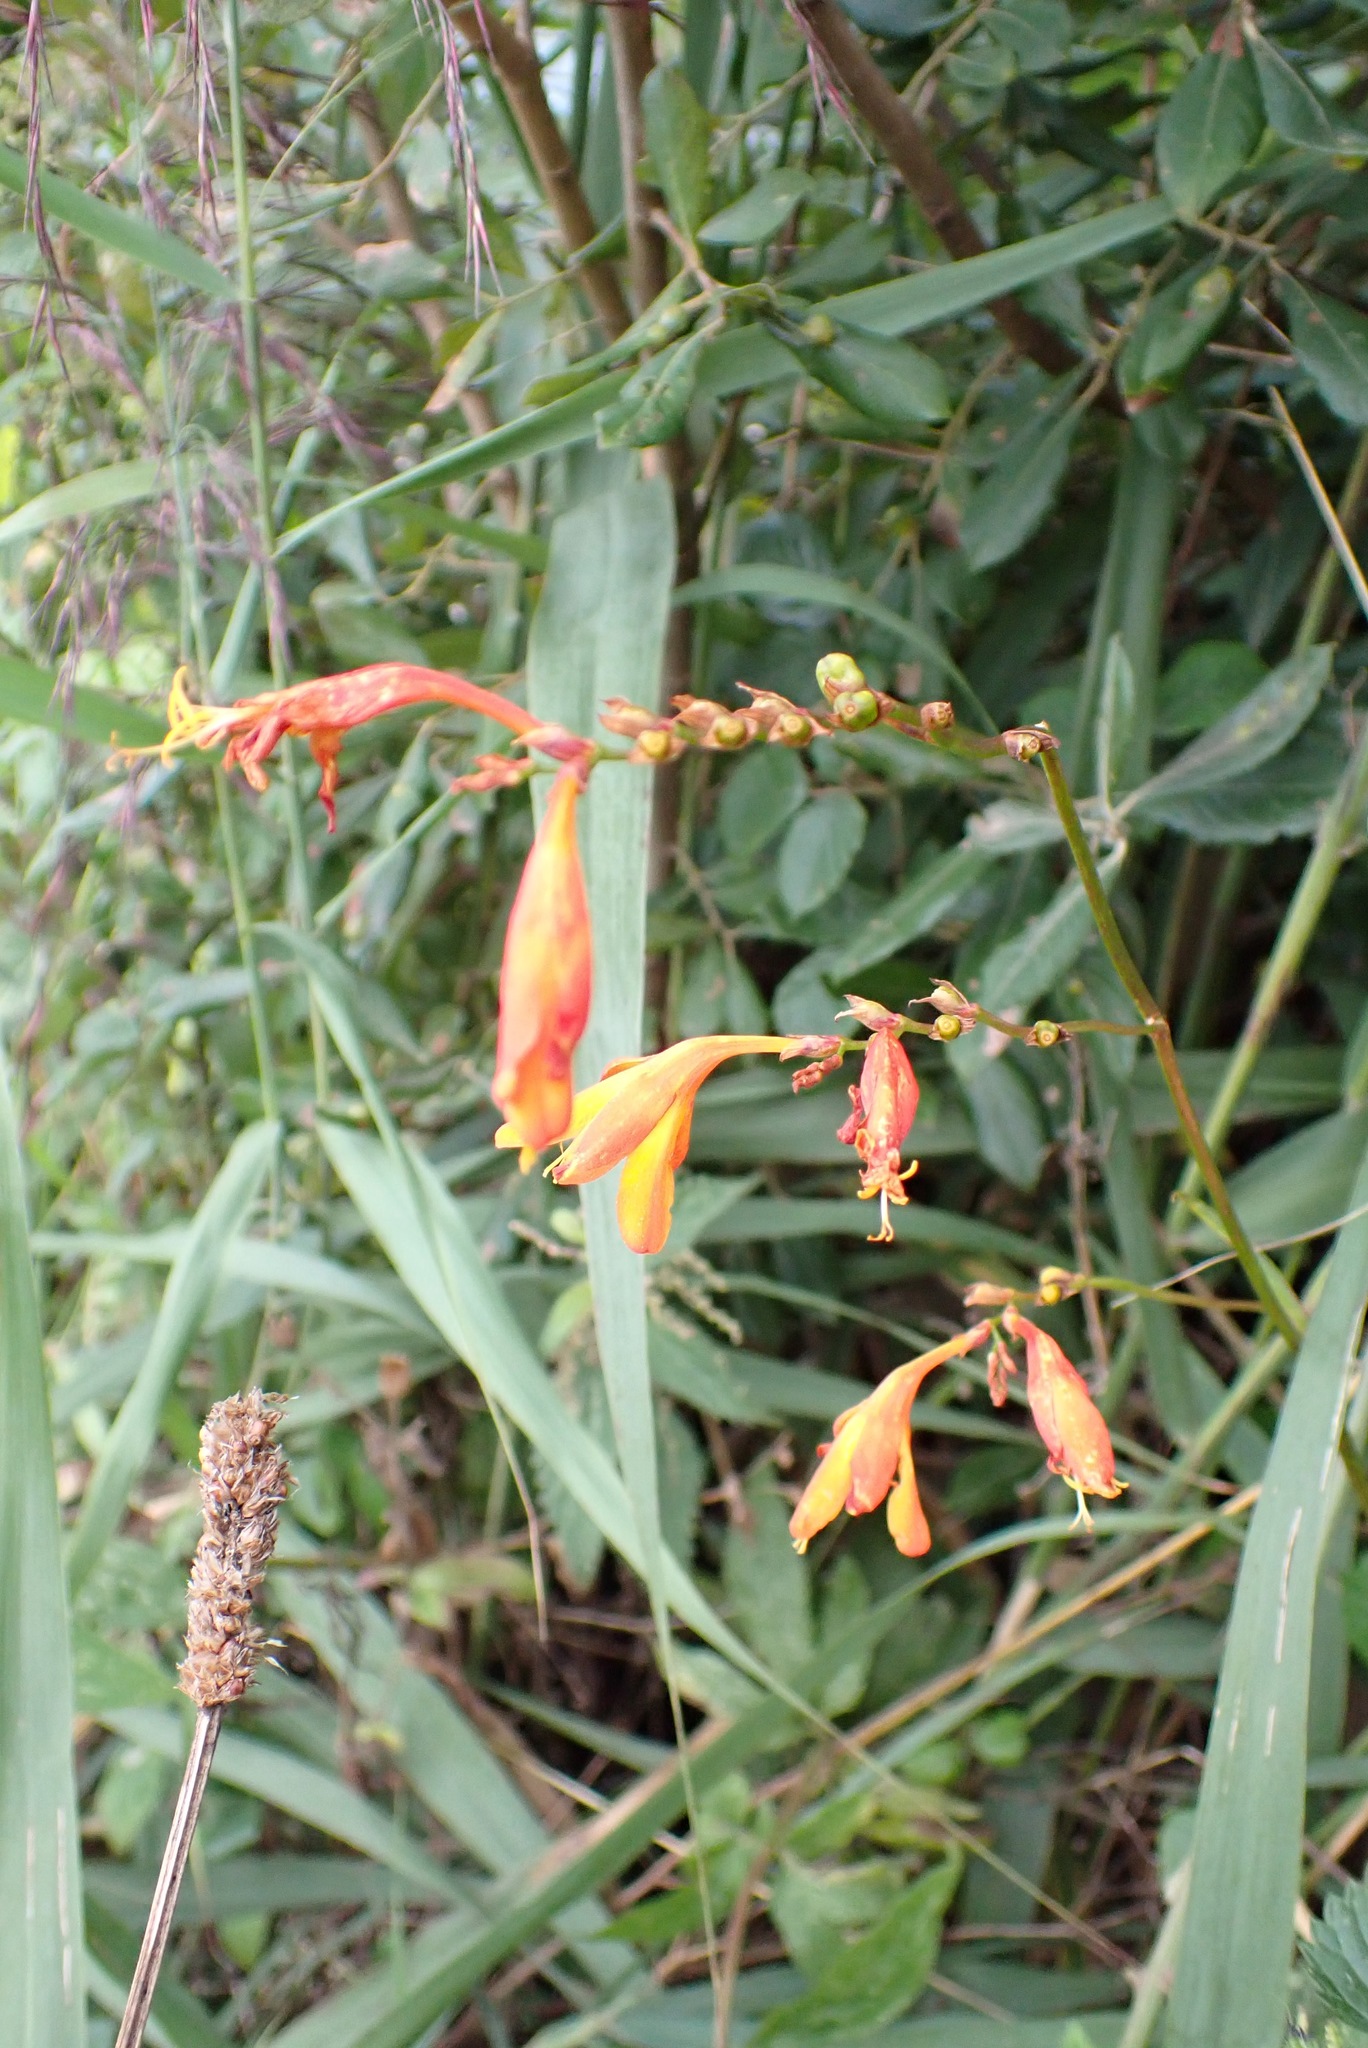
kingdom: Plantae
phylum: Tracheophyta
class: Liliopsida
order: Asparagales
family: Iridaceae
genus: Crocosmia
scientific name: Crocosmia crocosmiiflora
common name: Montbretia
